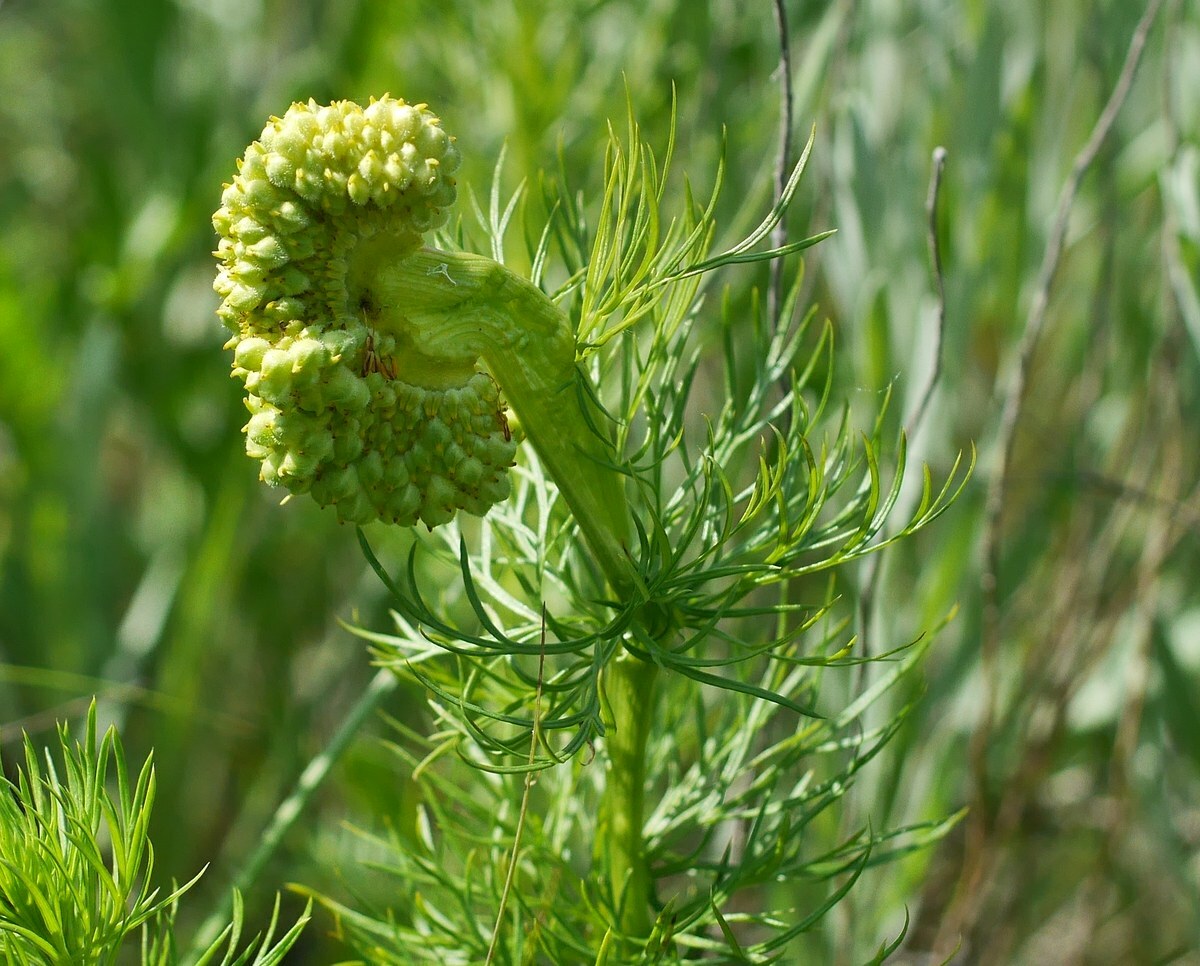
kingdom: Plantae
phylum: Tracheophyta
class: Magnoliopsida
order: Ranunculales
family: Ranunculaceae
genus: Adonis
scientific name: Adonis vernalis
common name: Yellow pheasants-eye
